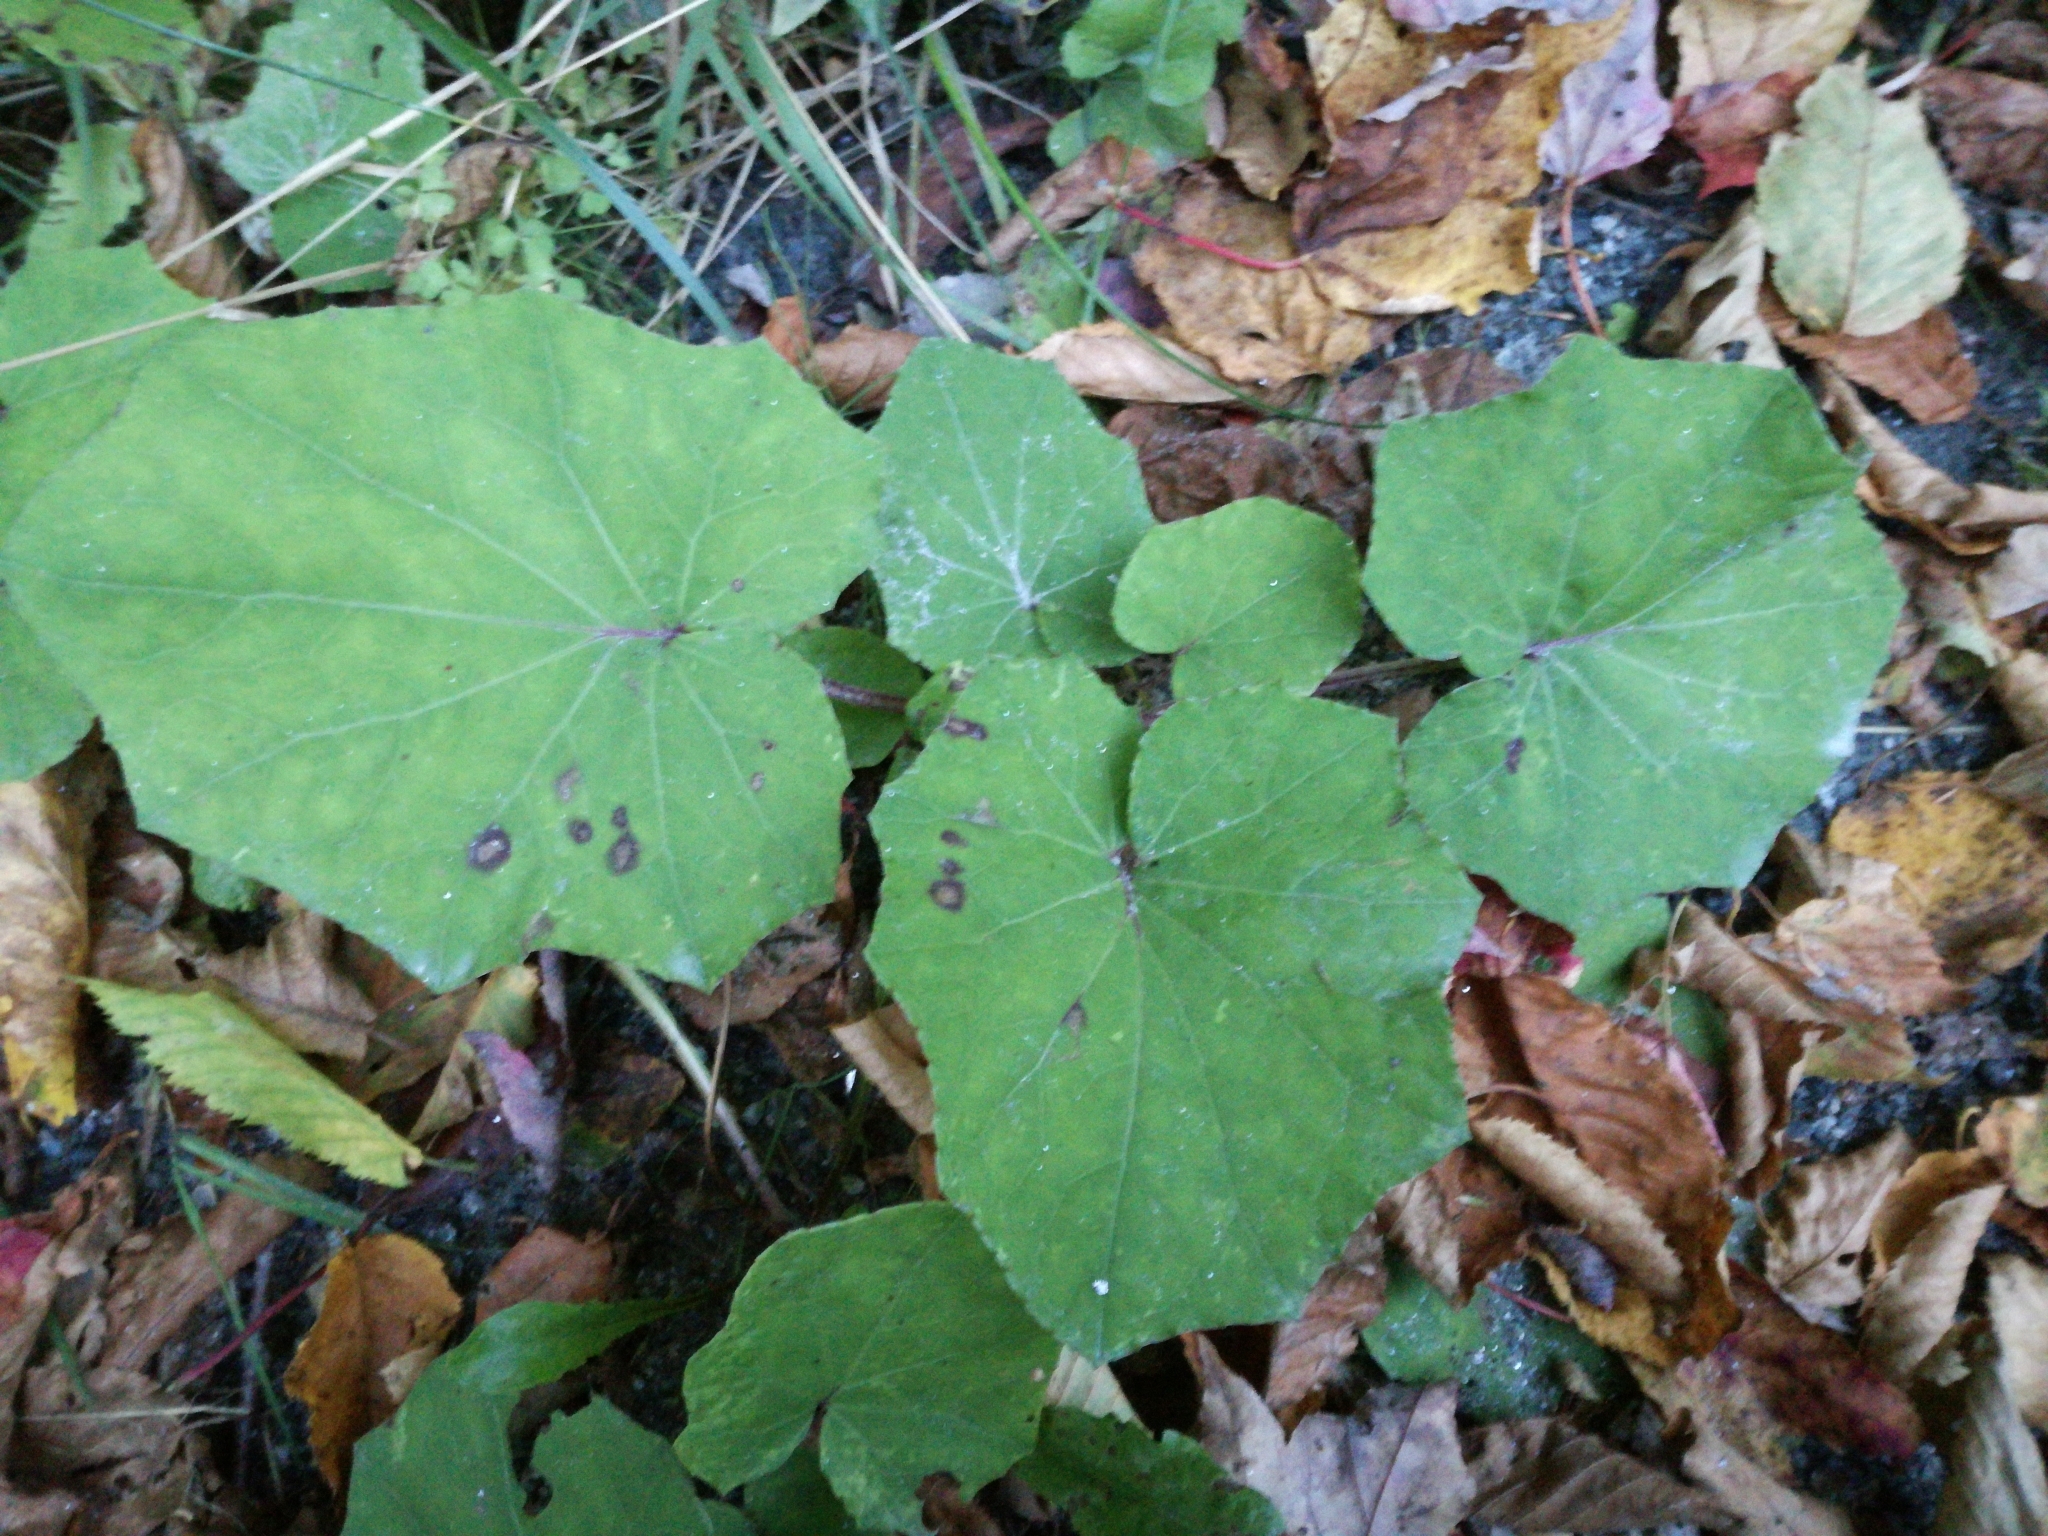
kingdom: Plantae
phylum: Tracheophyta
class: Magnoliopsida
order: Asterales
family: Asteraceae
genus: Tussilago
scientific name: Tussilago farfara
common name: Coltsfoot
